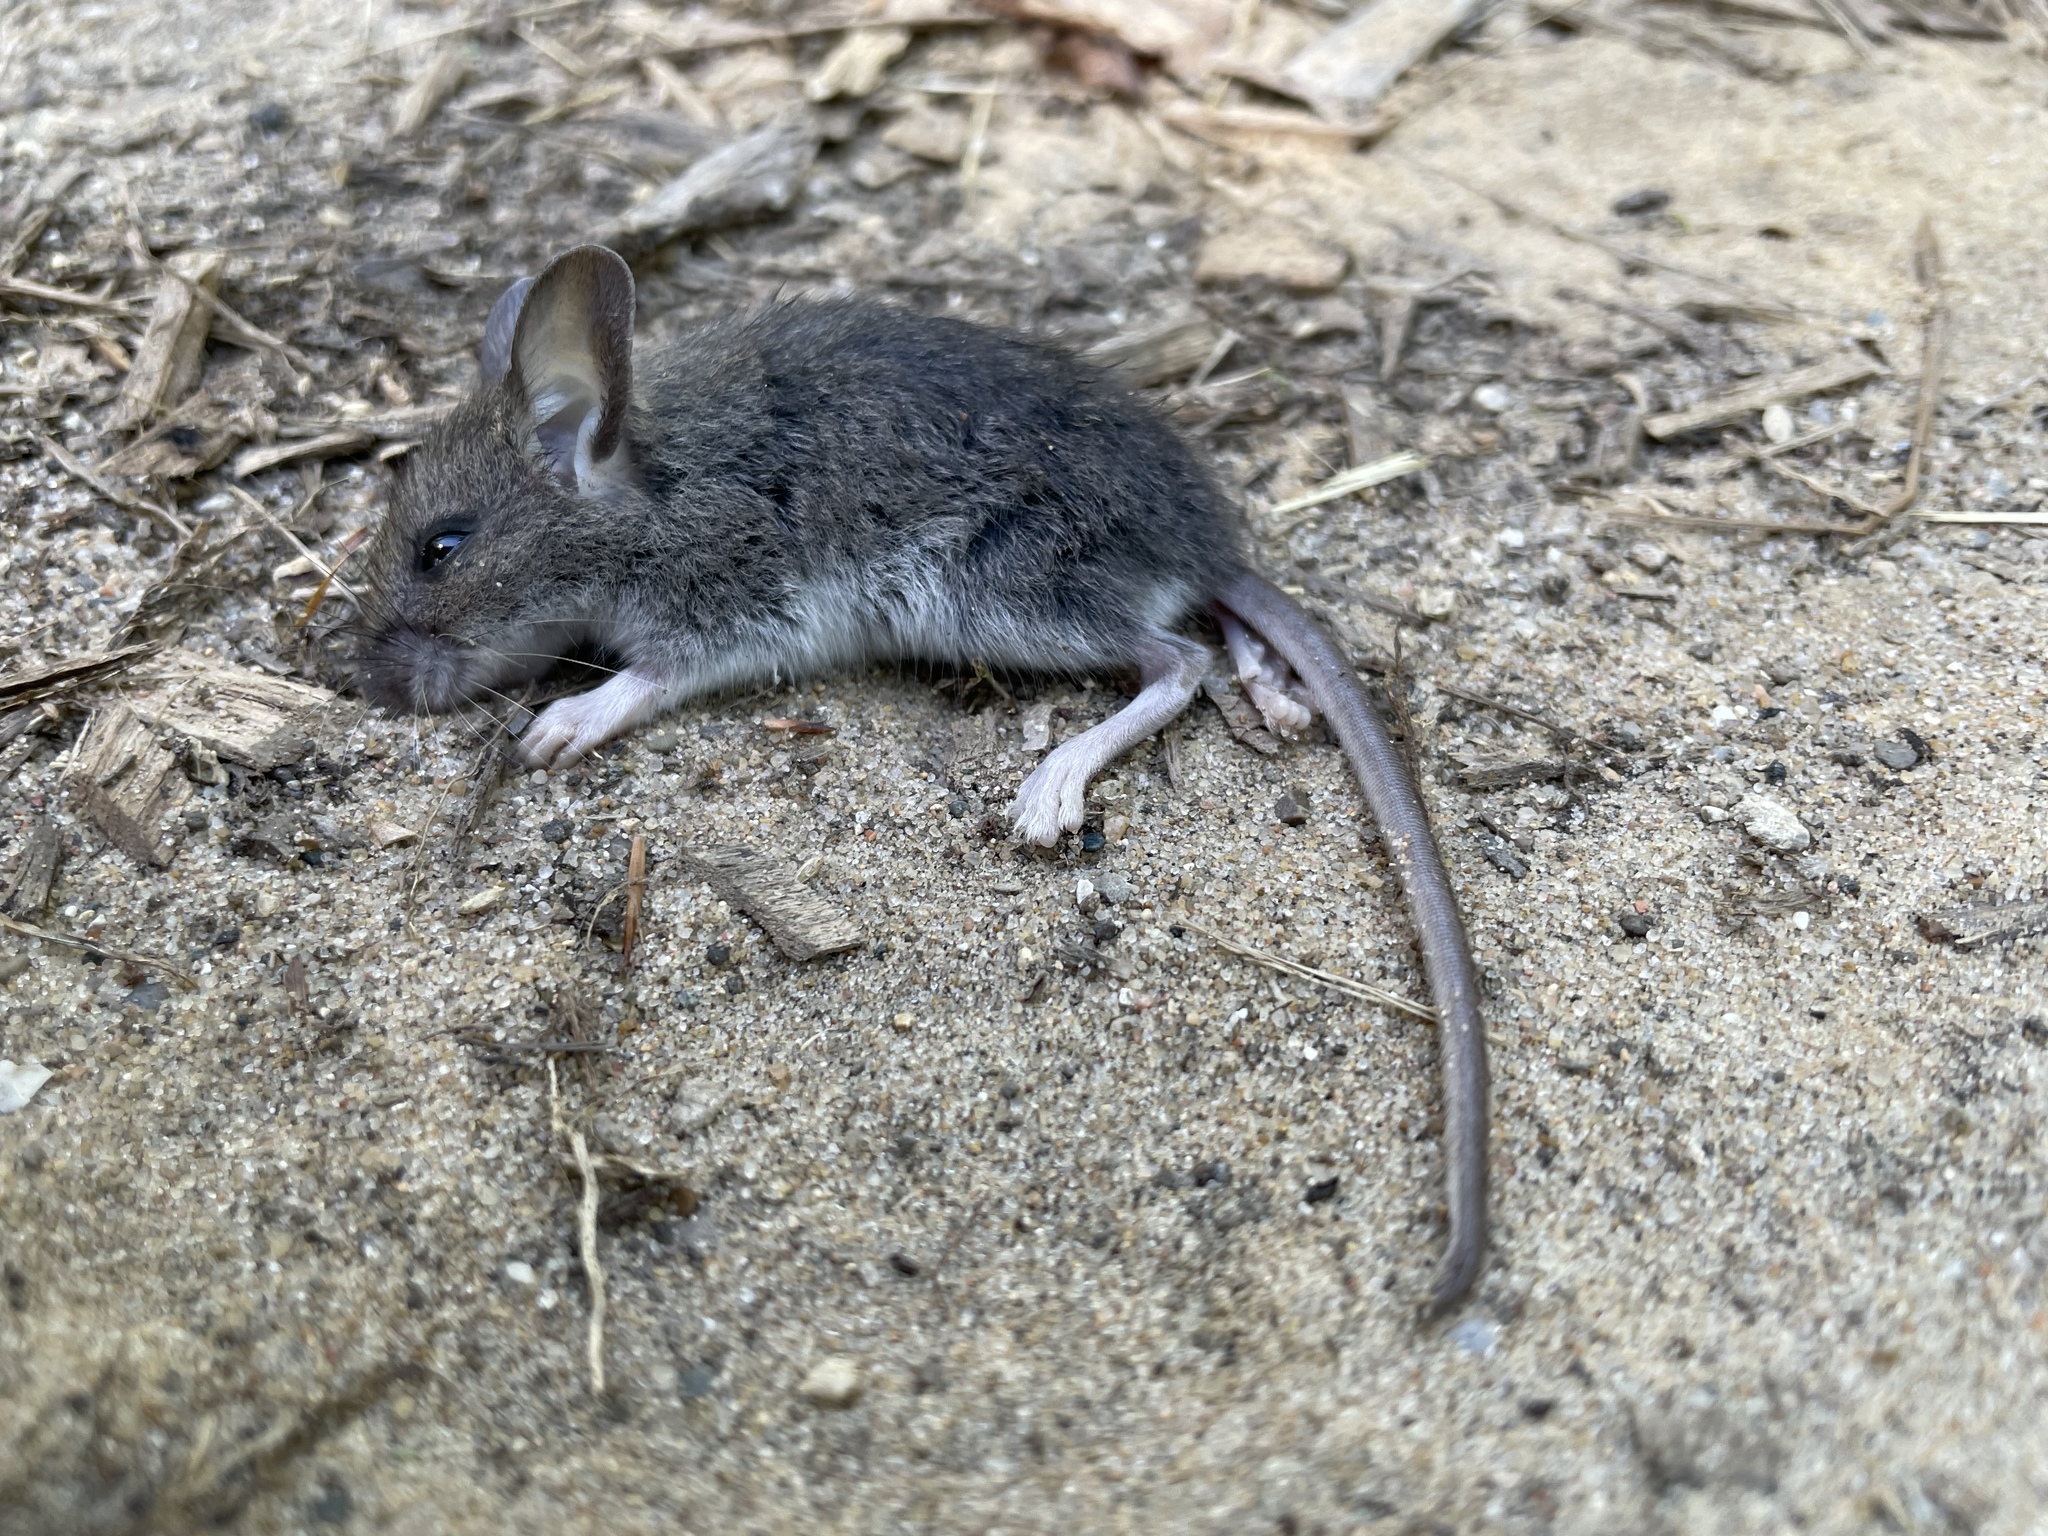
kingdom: Animalia
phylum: Chordata
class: Mammalia
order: Rodentia
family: Cricetidae
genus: Peromyscus
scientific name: Peromyscus maniculatus
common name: Deer mouse
